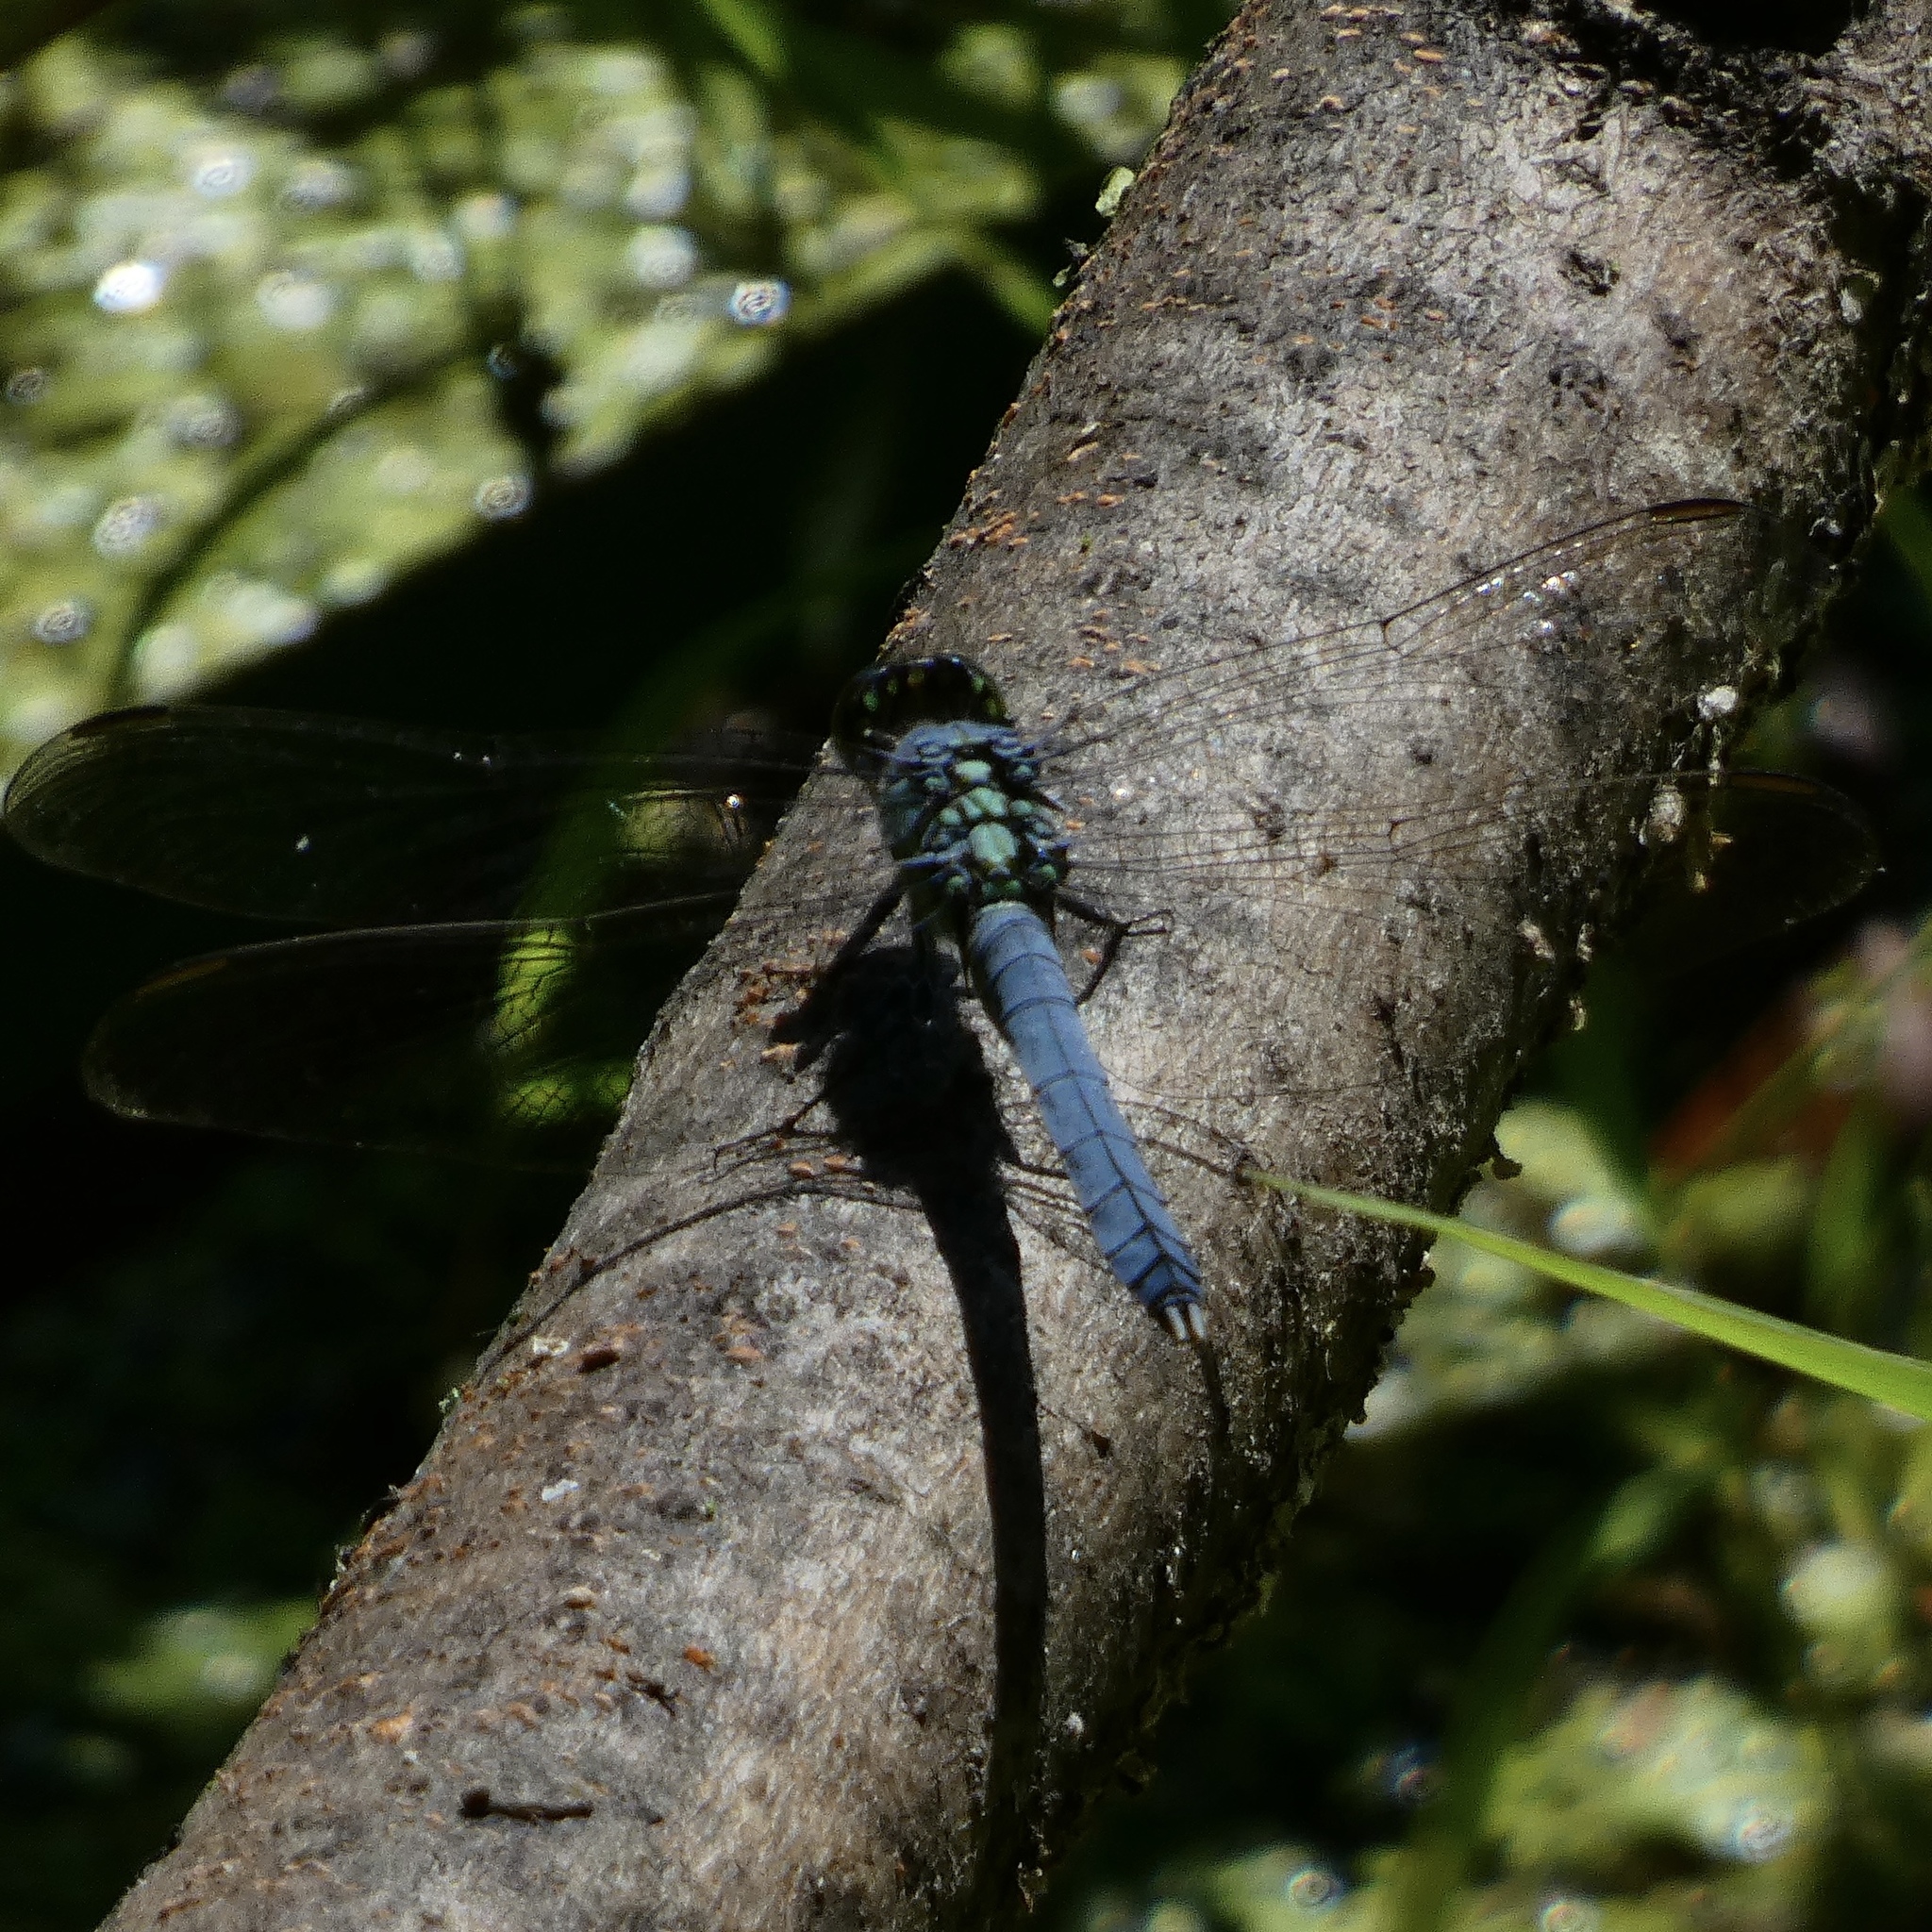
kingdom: Animalia
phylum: Arthropoda
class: Insecta
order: Odonata
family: Libellulidae
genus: Erythemis
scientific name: Erythemis simplicicollis
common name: Eastern pondhawk
